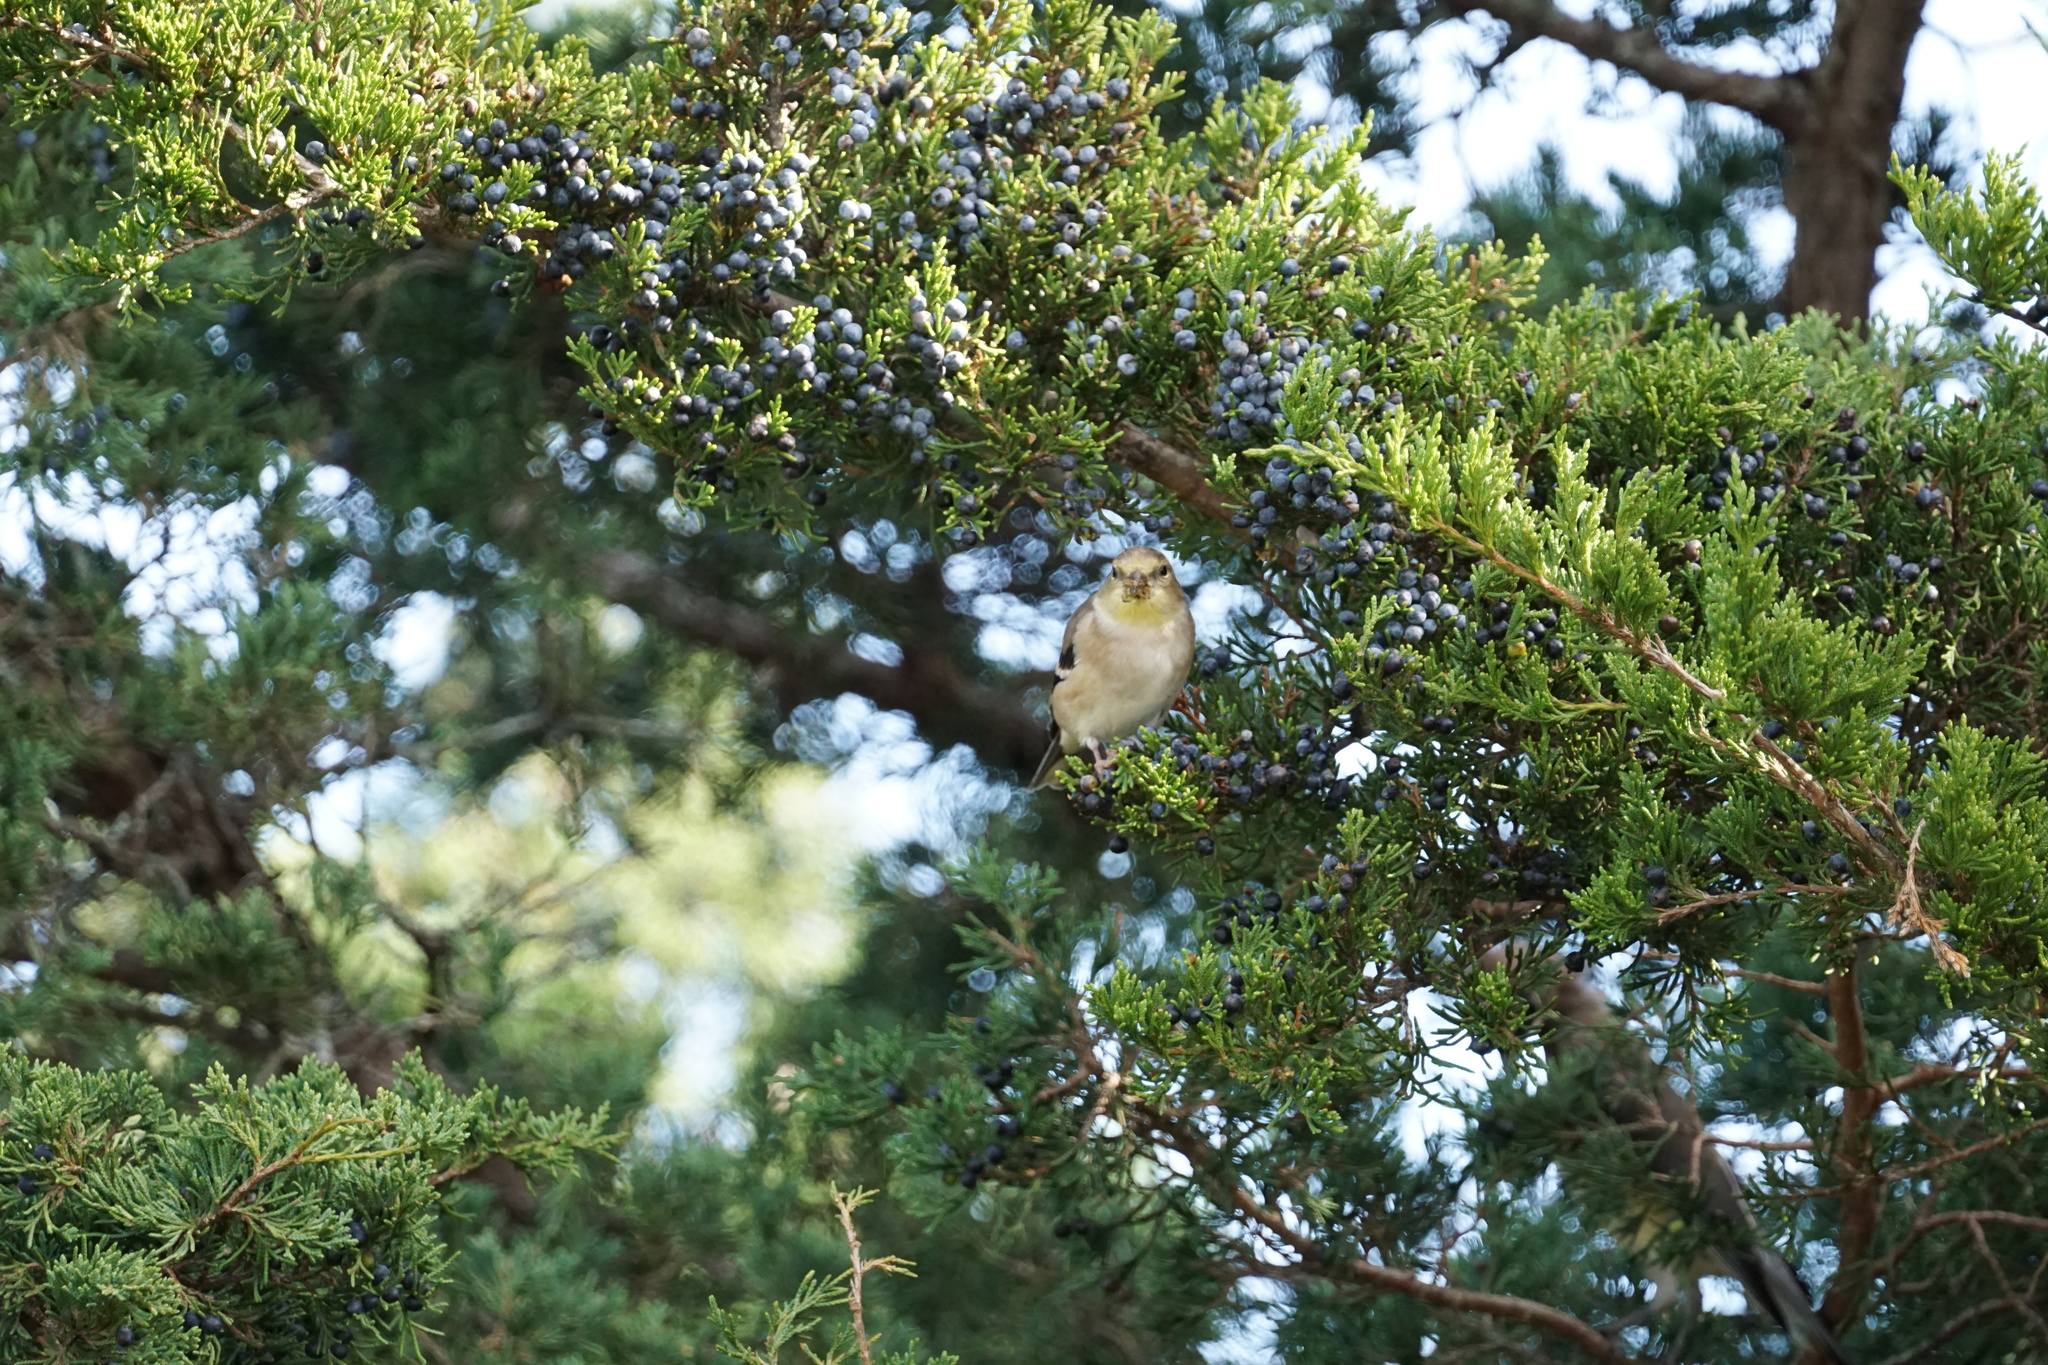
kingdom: Animalia
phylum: Chordata
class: Aves
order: Passeriformes
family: Fringillidae
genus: Spinus
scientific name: Spinus tristis
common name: American goldfinch
